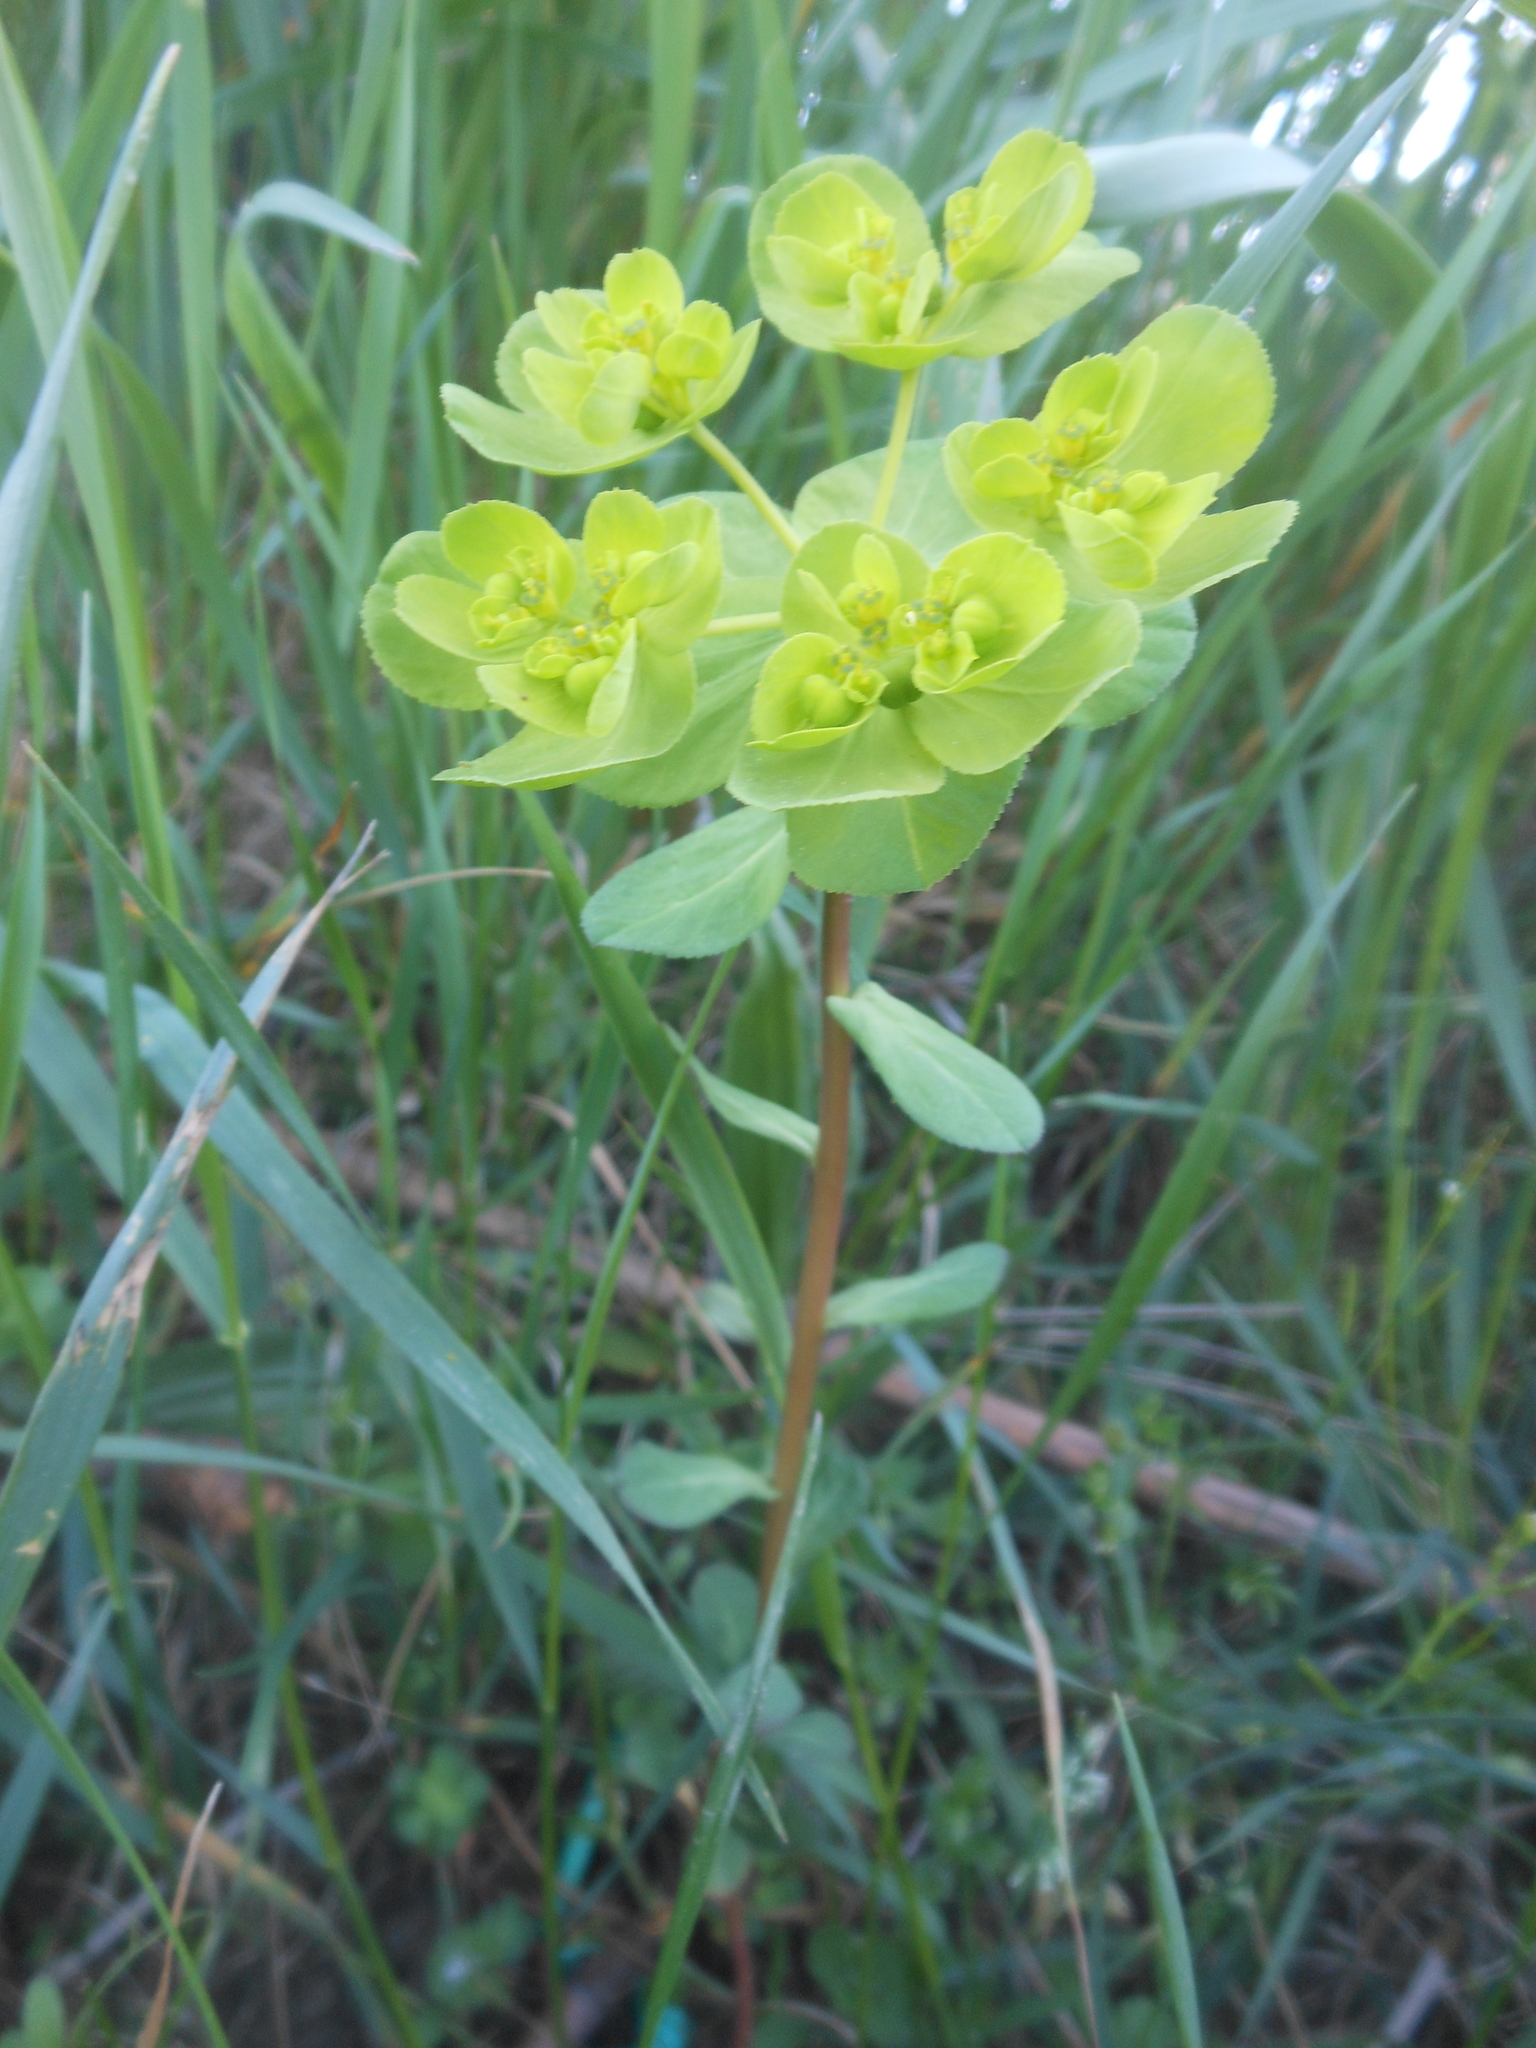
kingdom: Plantae
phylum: Tracheophyta
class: Magnoliopsida
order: Malpighiales
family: Euphorbiaceae
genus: Euphorbia
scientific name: Euphorbia helioscopia
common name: Sun spurge
